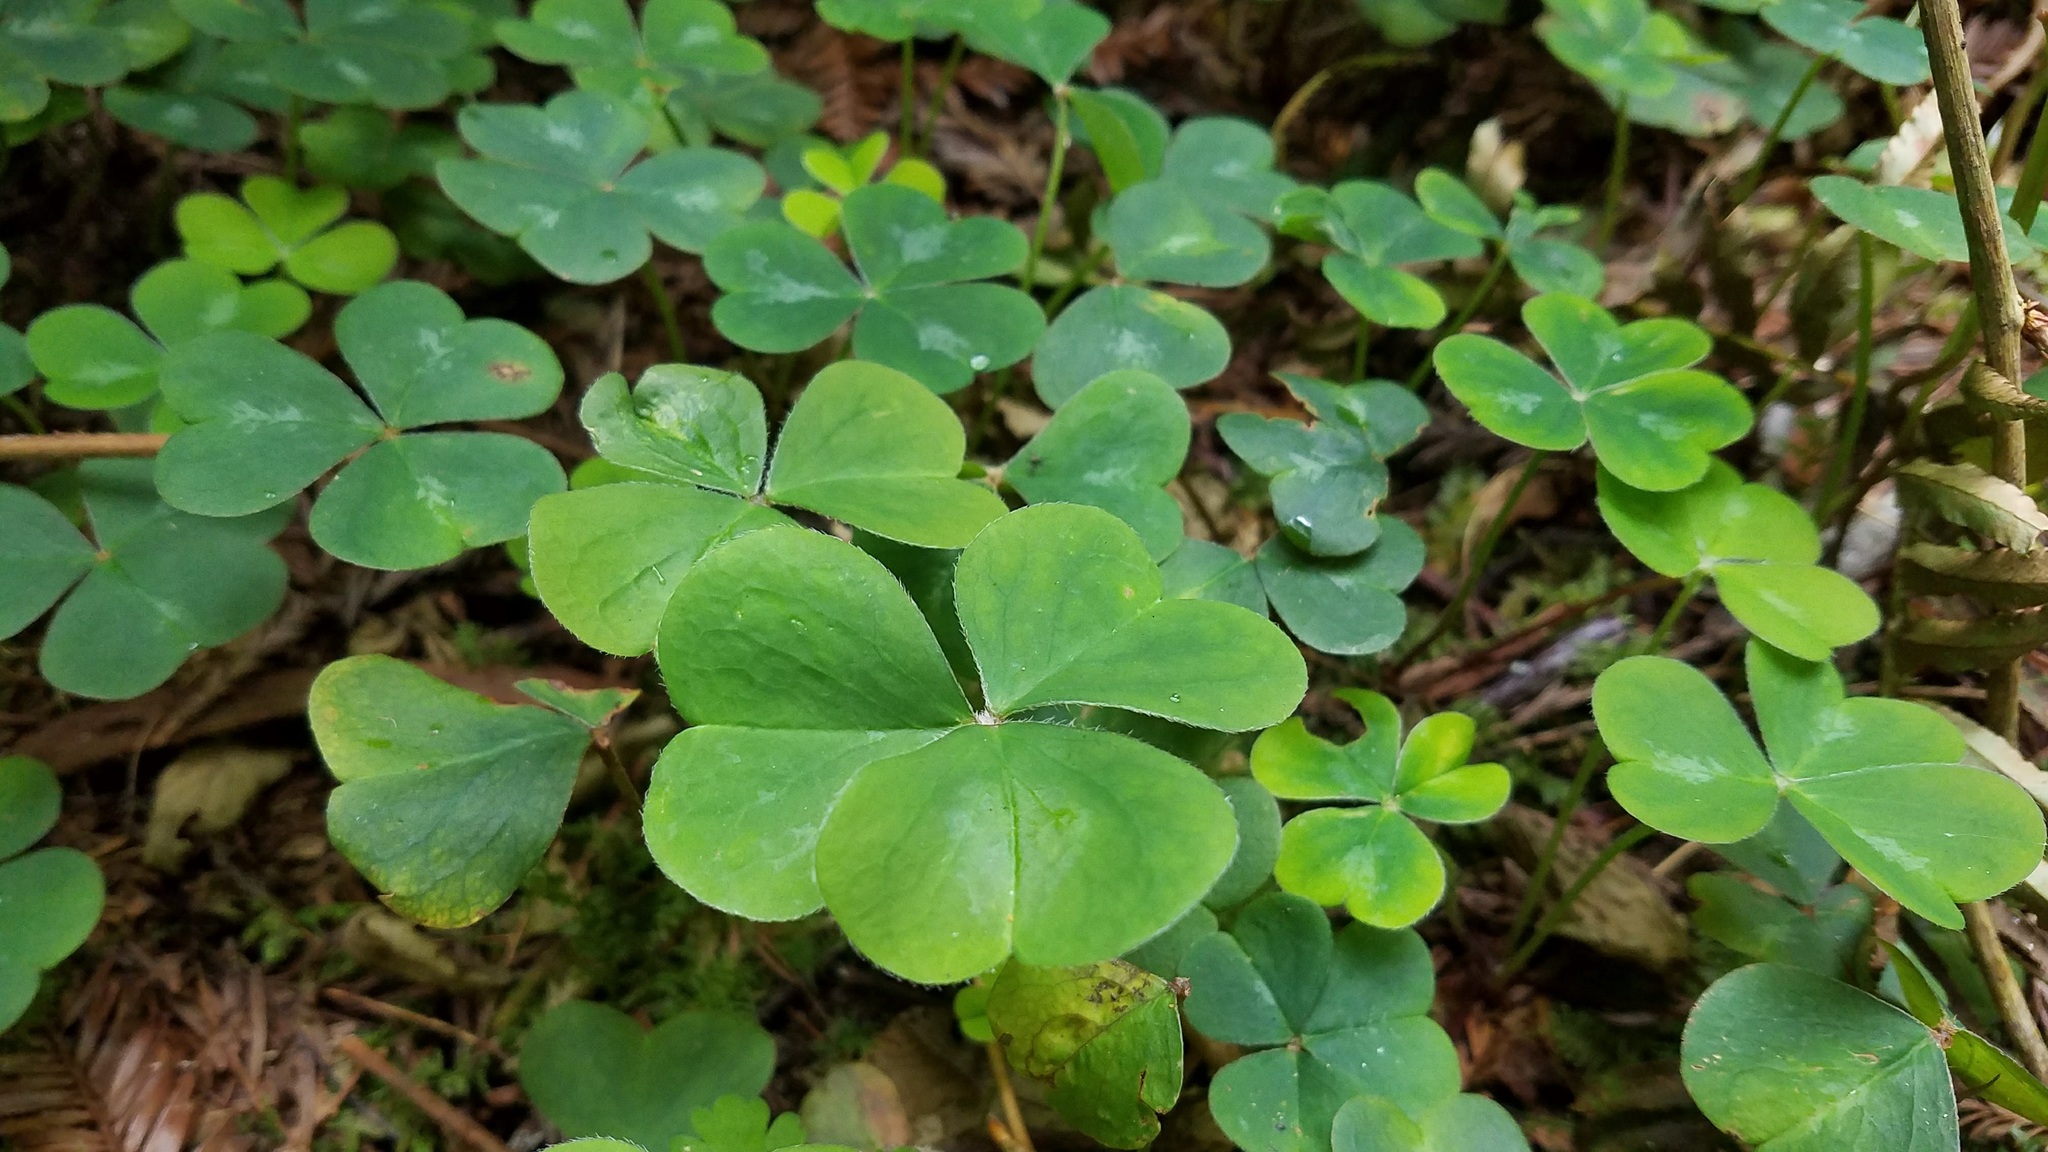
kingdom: Plantae
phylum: Tracheophyta
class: Magnoliopsida
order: Oxalidales
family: Oxalidaceae
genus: Oxalis
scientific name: Oxalis oregana
